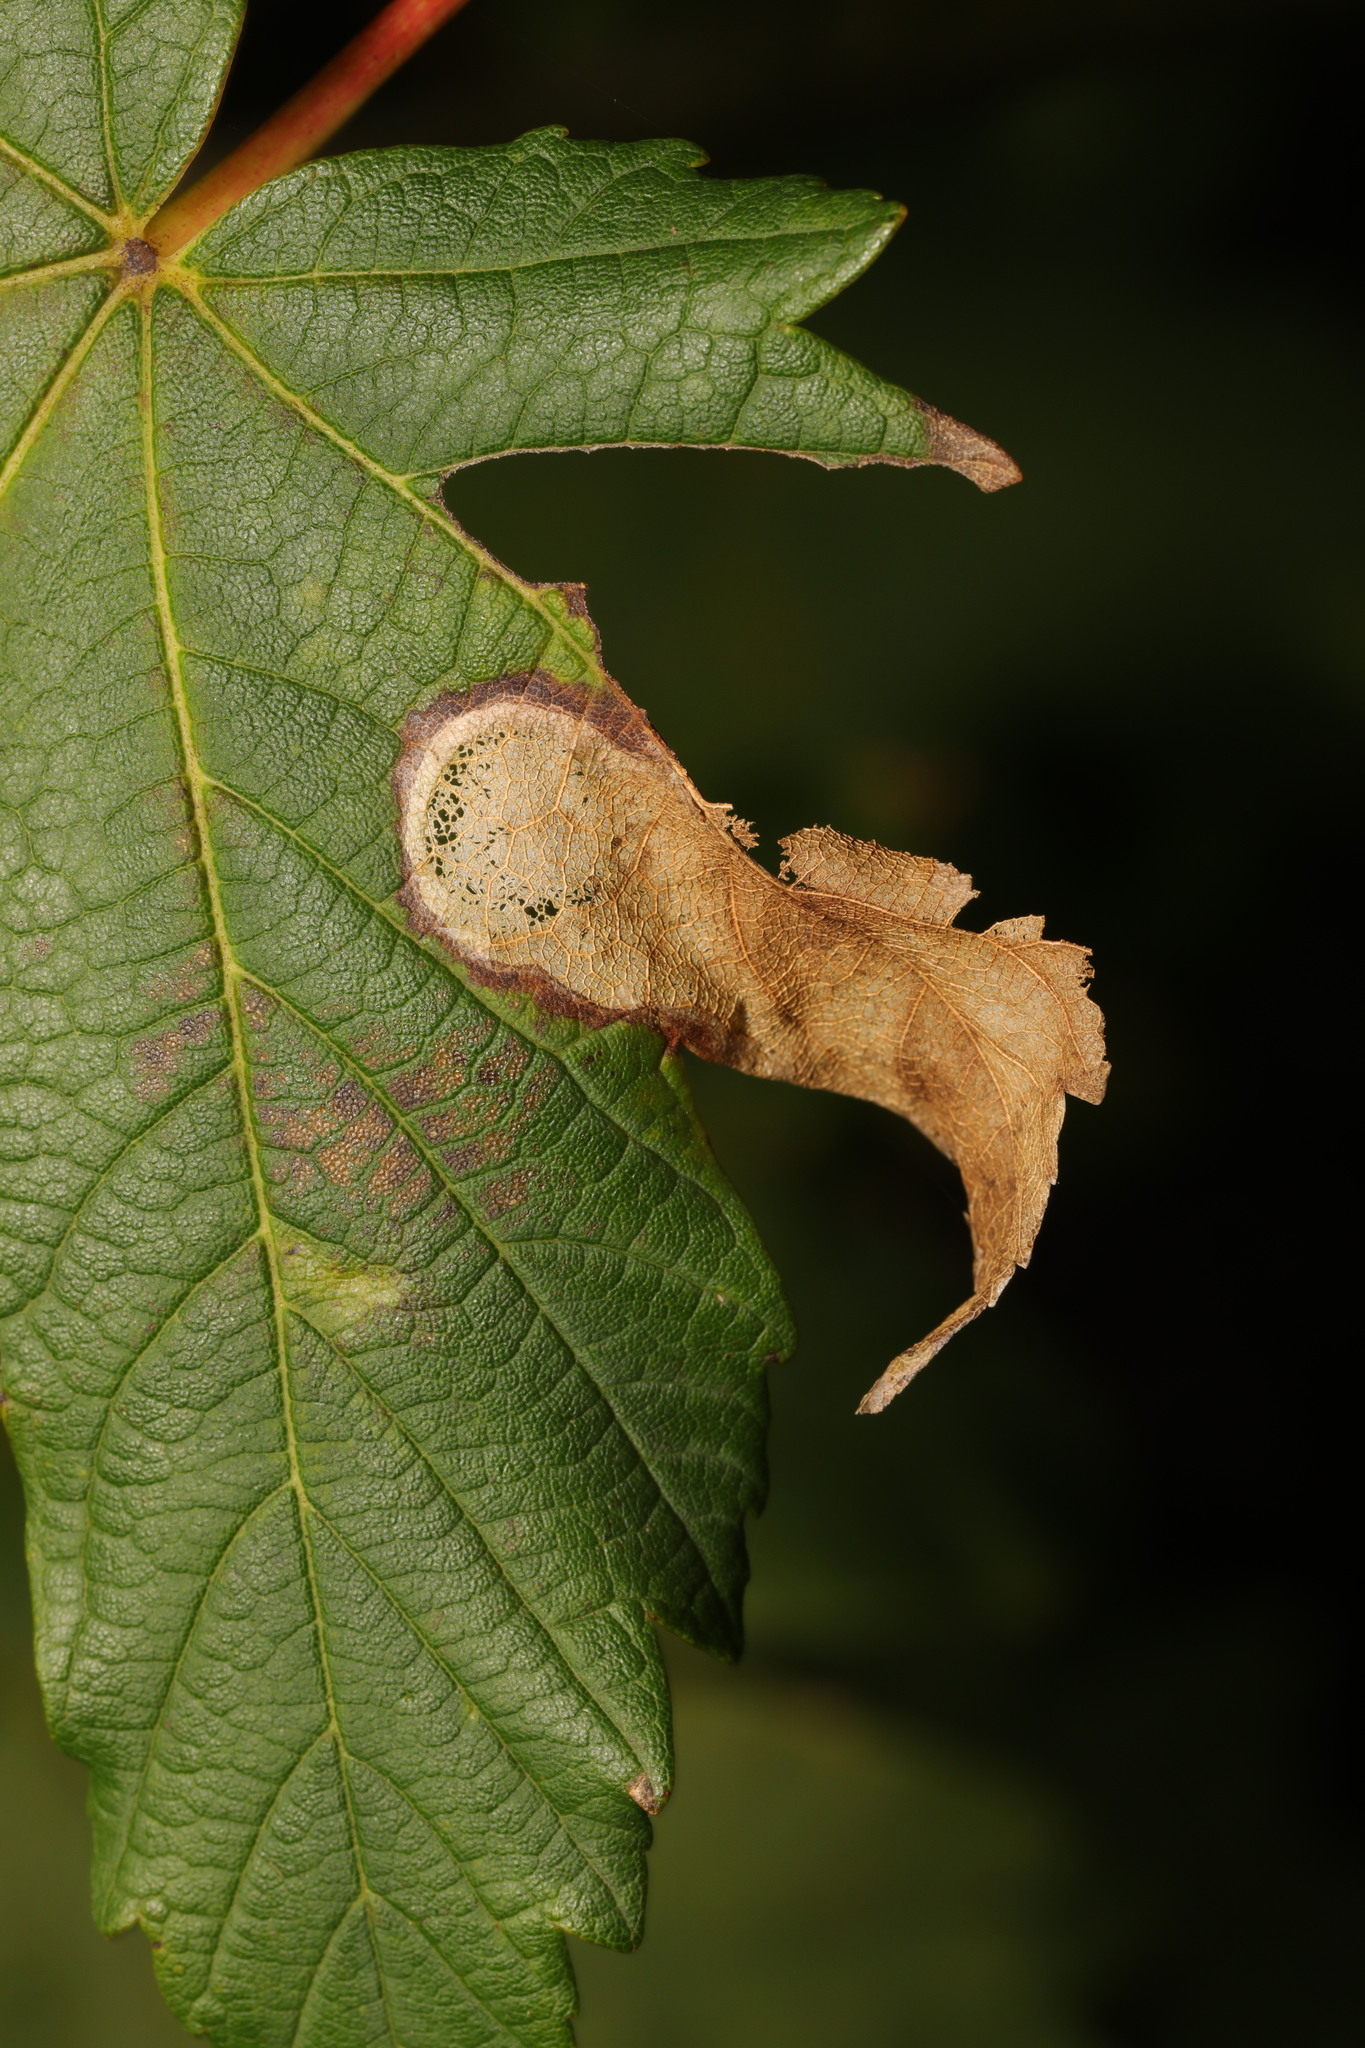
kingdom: Animalia
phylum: Arthropoda
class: Insecta
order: Hymenoptera
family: Tenthredinidae
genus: Heterarthrus
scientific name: Heterarthrus fiora
